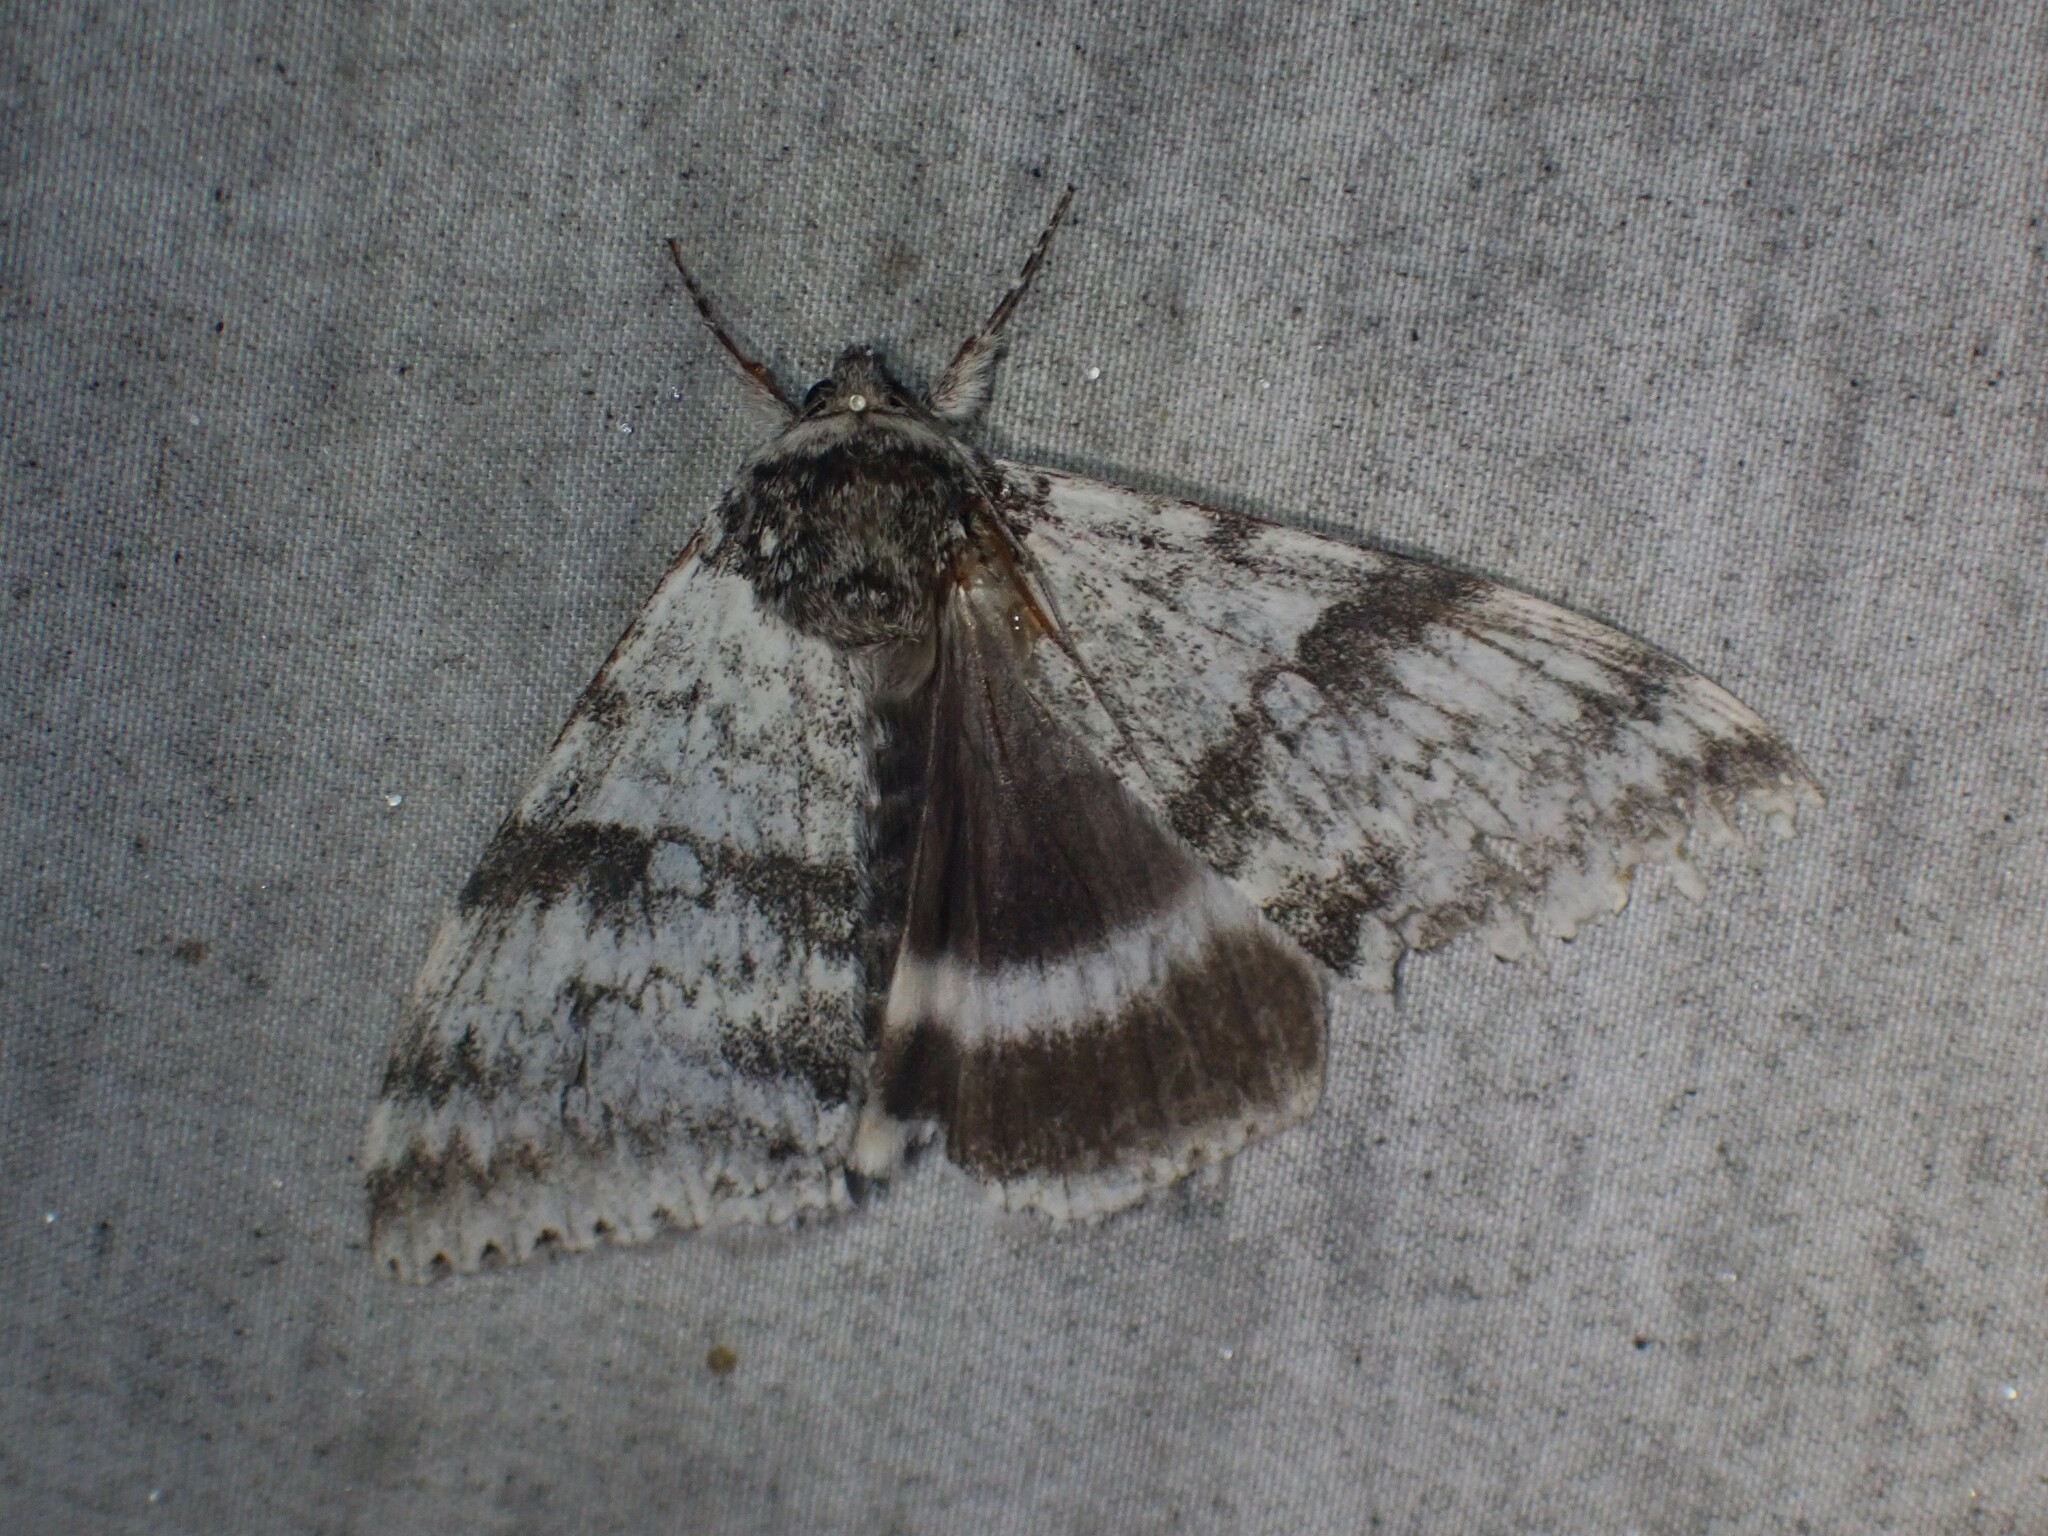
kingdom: Animalia
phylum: Arthropoda
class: Insecta
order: Lepidoptera
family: Erebidae
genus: Catocala
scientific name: Catocala relicta
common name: White underwing
